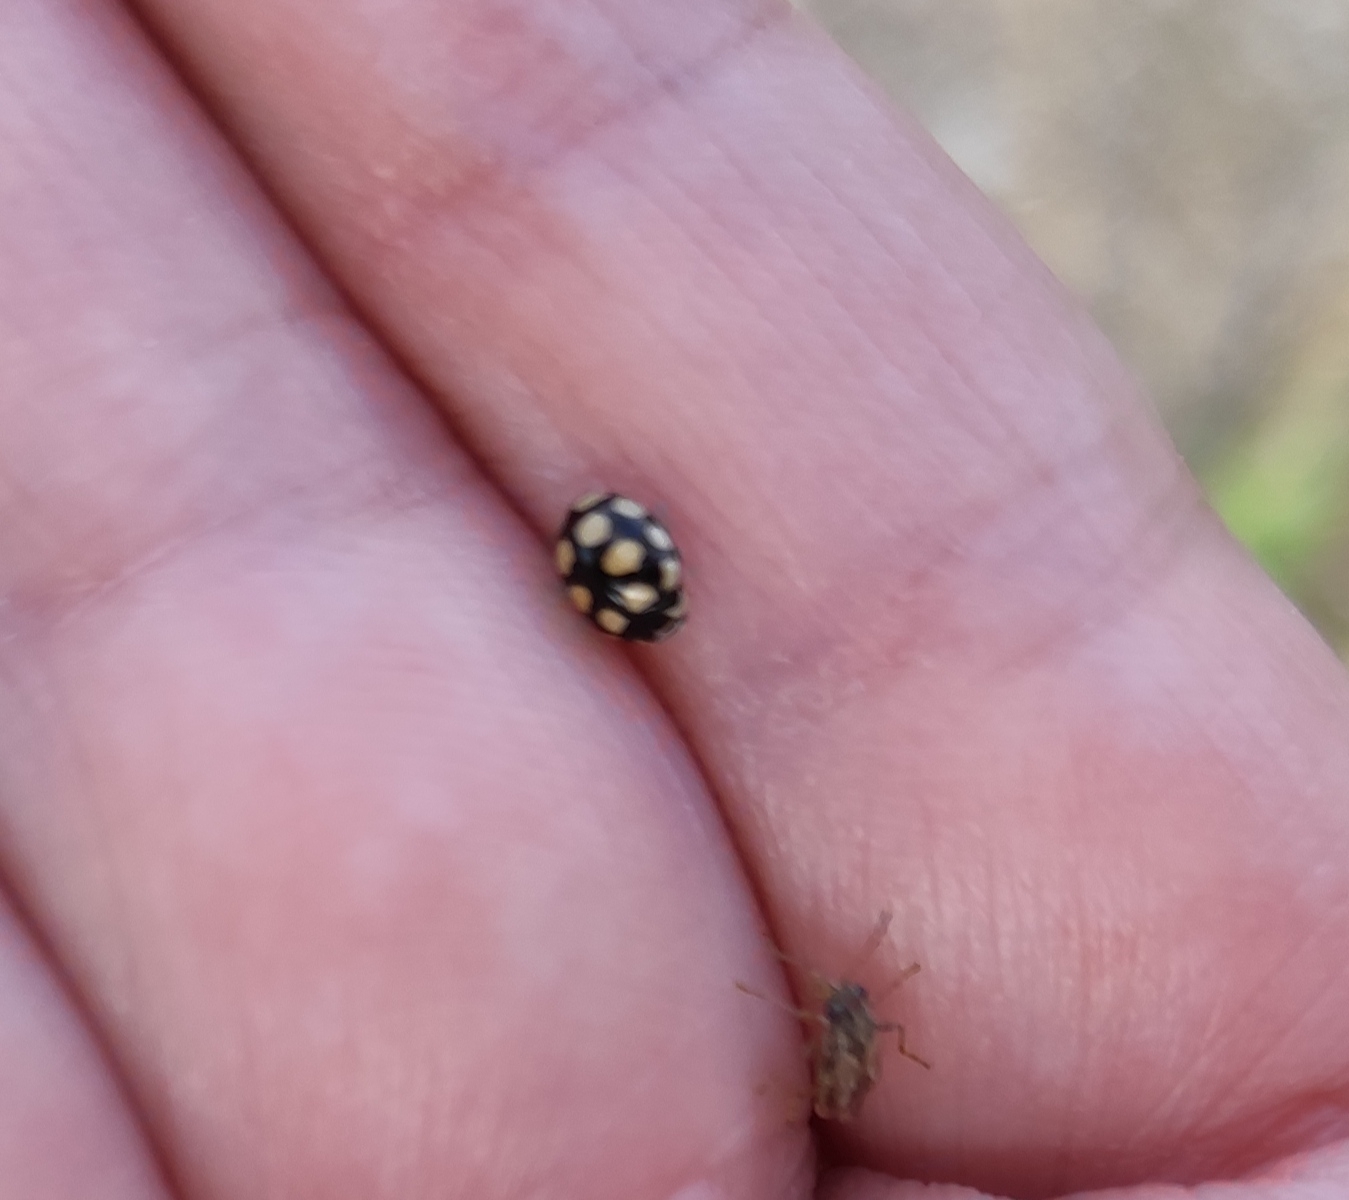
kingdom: Animalia
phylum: Arthropoda
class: Insecta
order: Coleoptera
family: Coccinellidae
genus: Coccinula
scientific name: Coccinula quatuordecimpustulata
